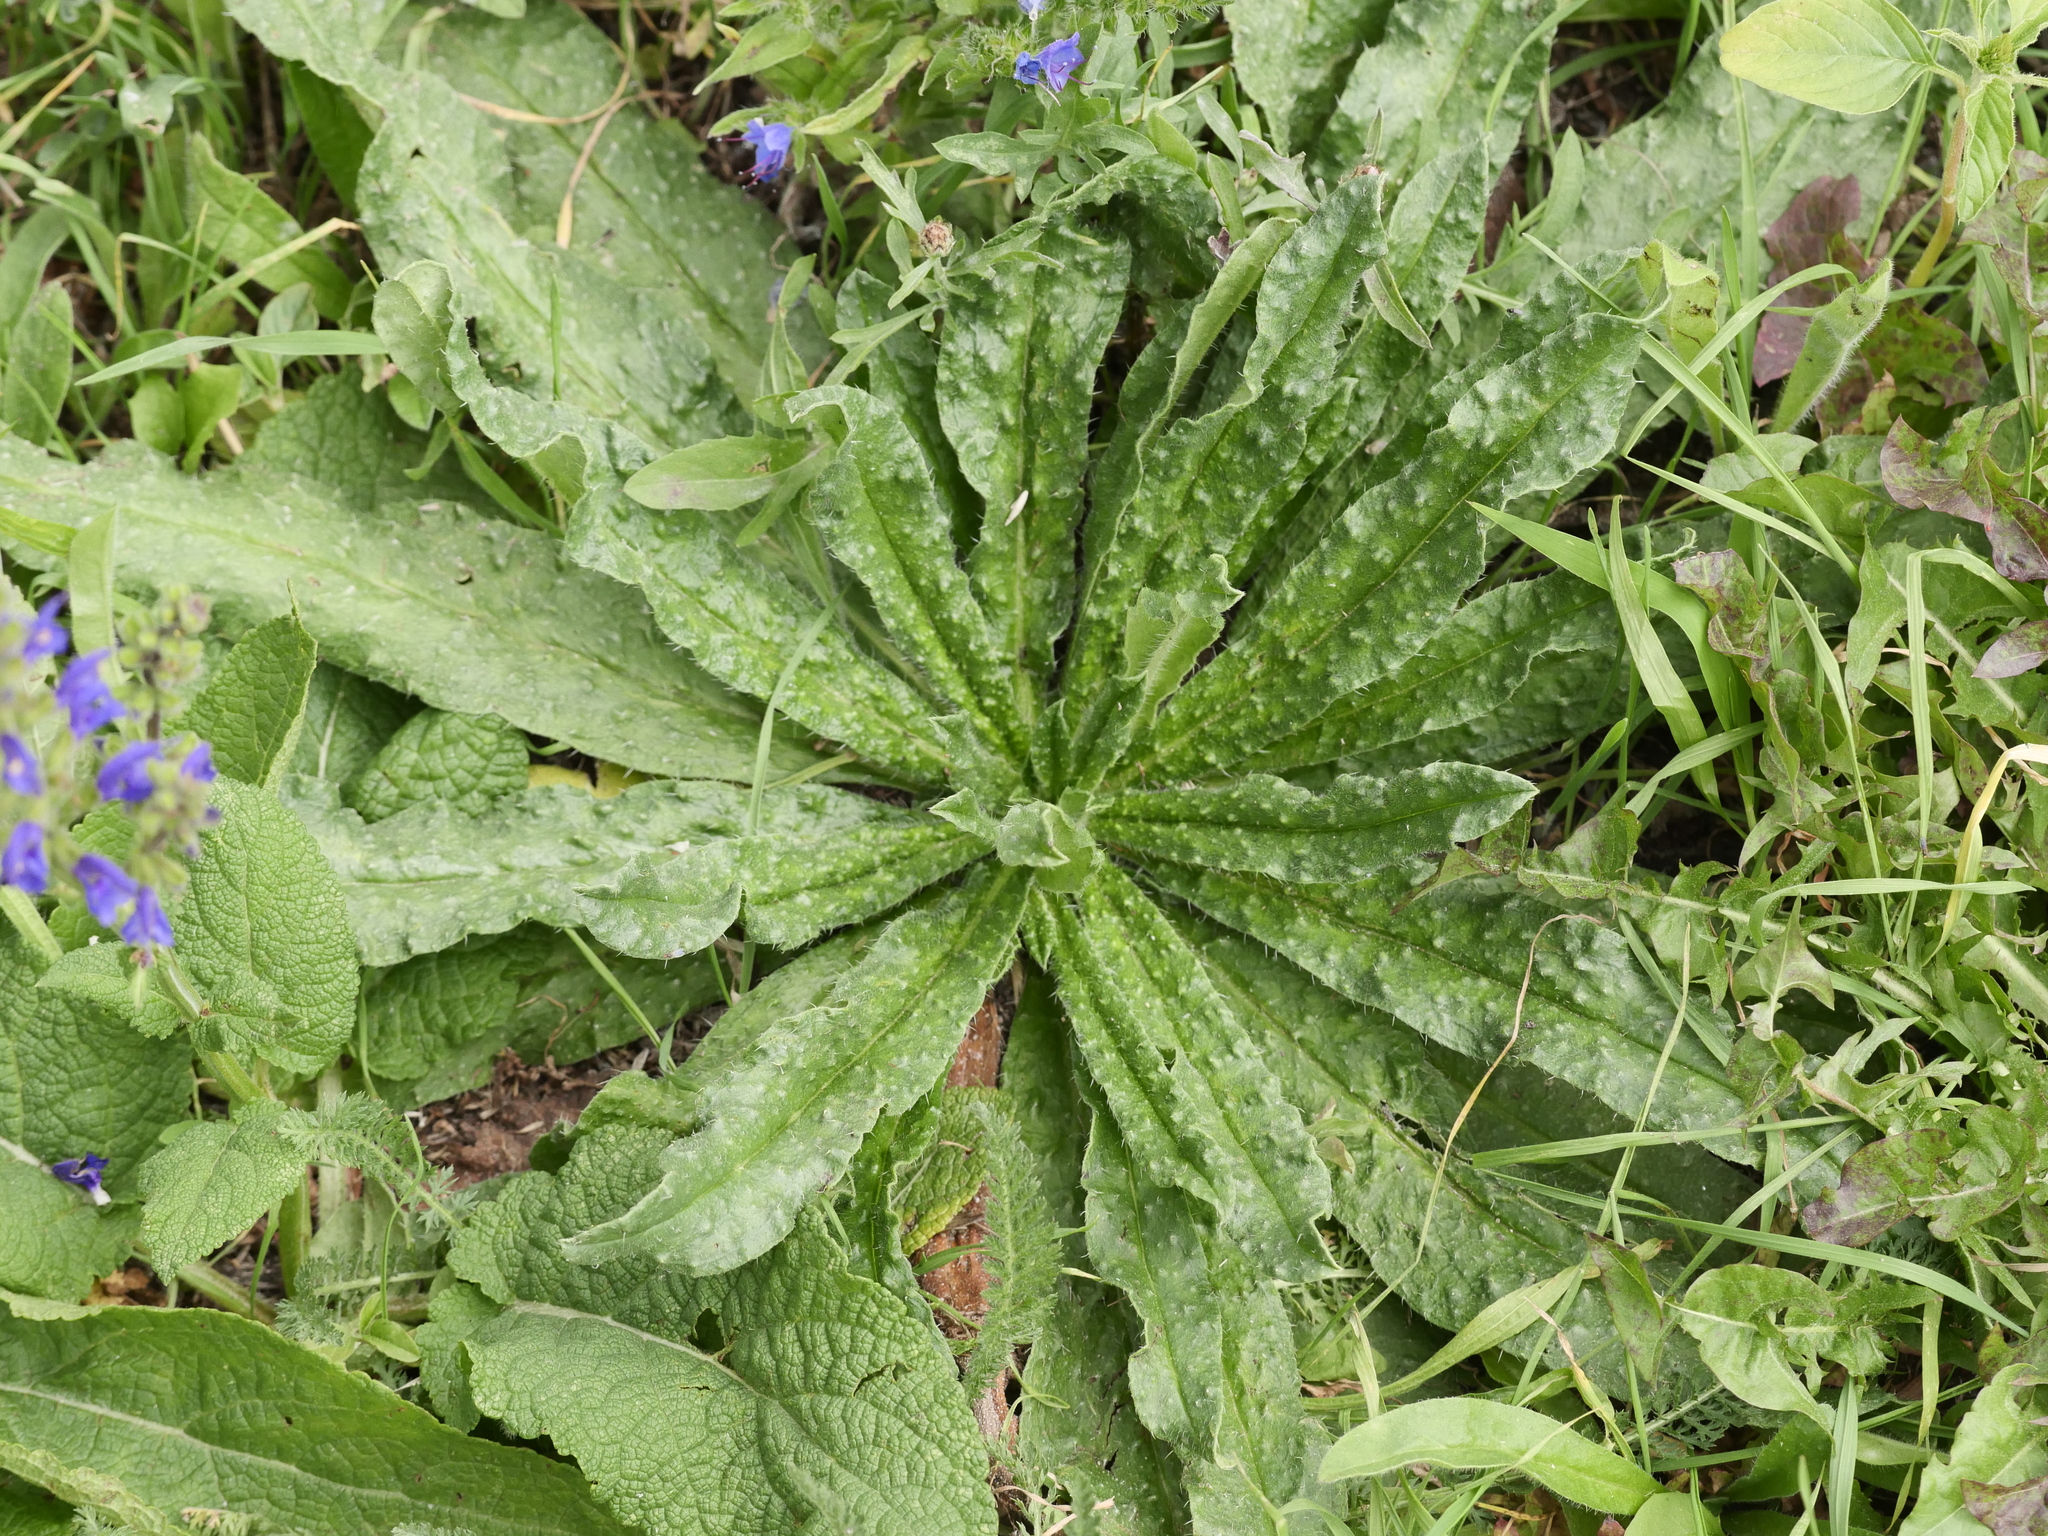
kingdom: Plantae
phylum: Tracheophyta
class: Magnoliopsida
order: Boraginales
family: Boraginaceae
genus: Echium
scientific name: Echium vulgare
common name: Common viper's bugloss
